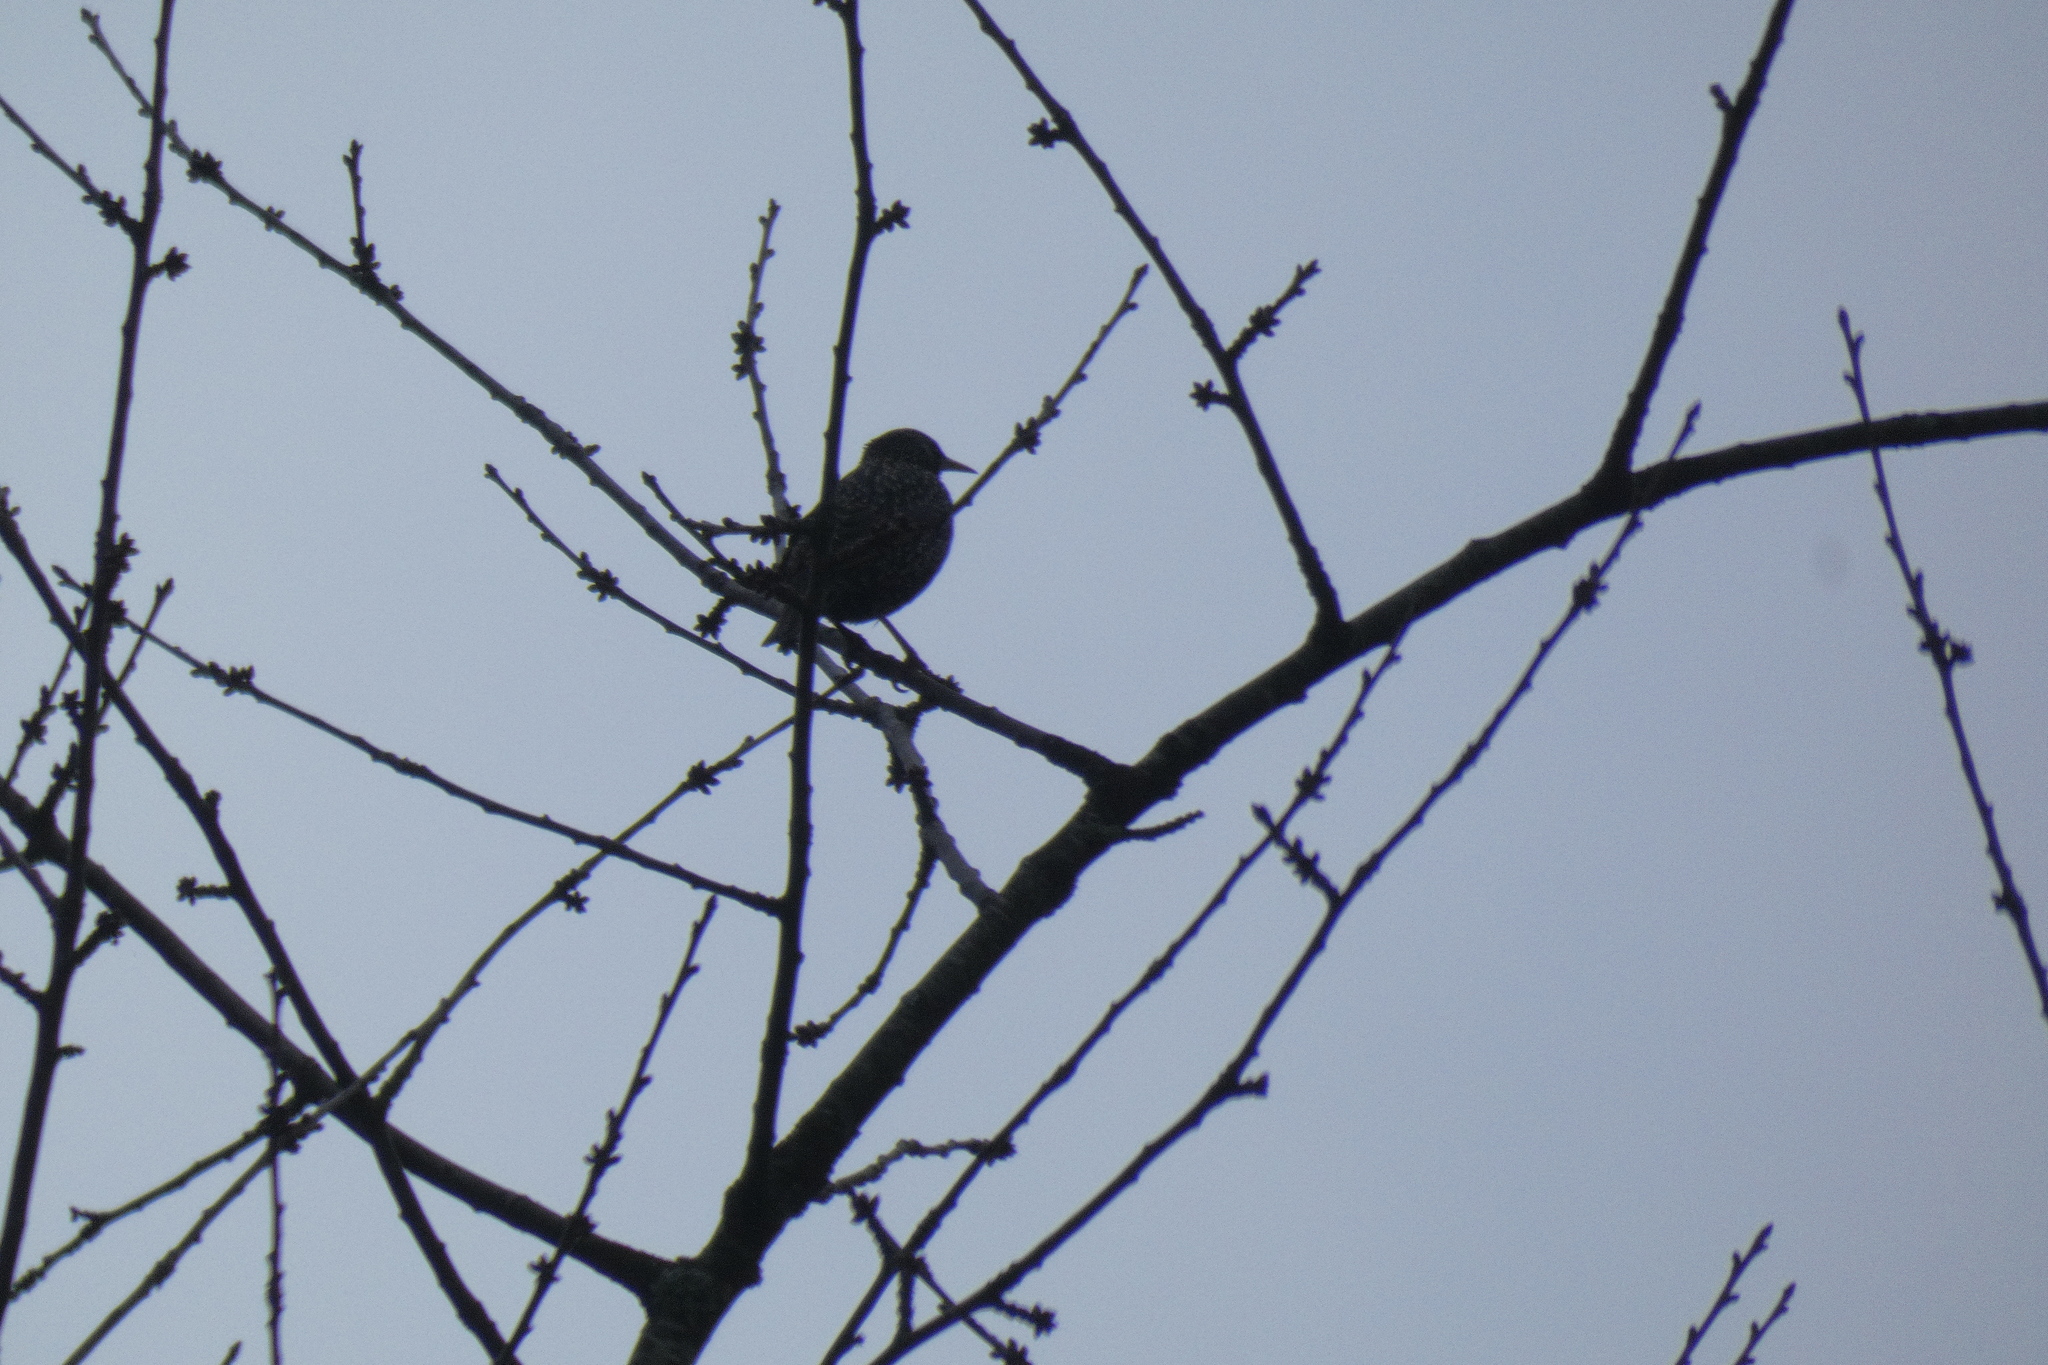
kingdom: Animalia
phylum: Chordata
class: Aves
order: Passeriformes
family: Sturnidae
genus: Sturnus
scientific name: Sturnus vulgaris
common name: Common starling
